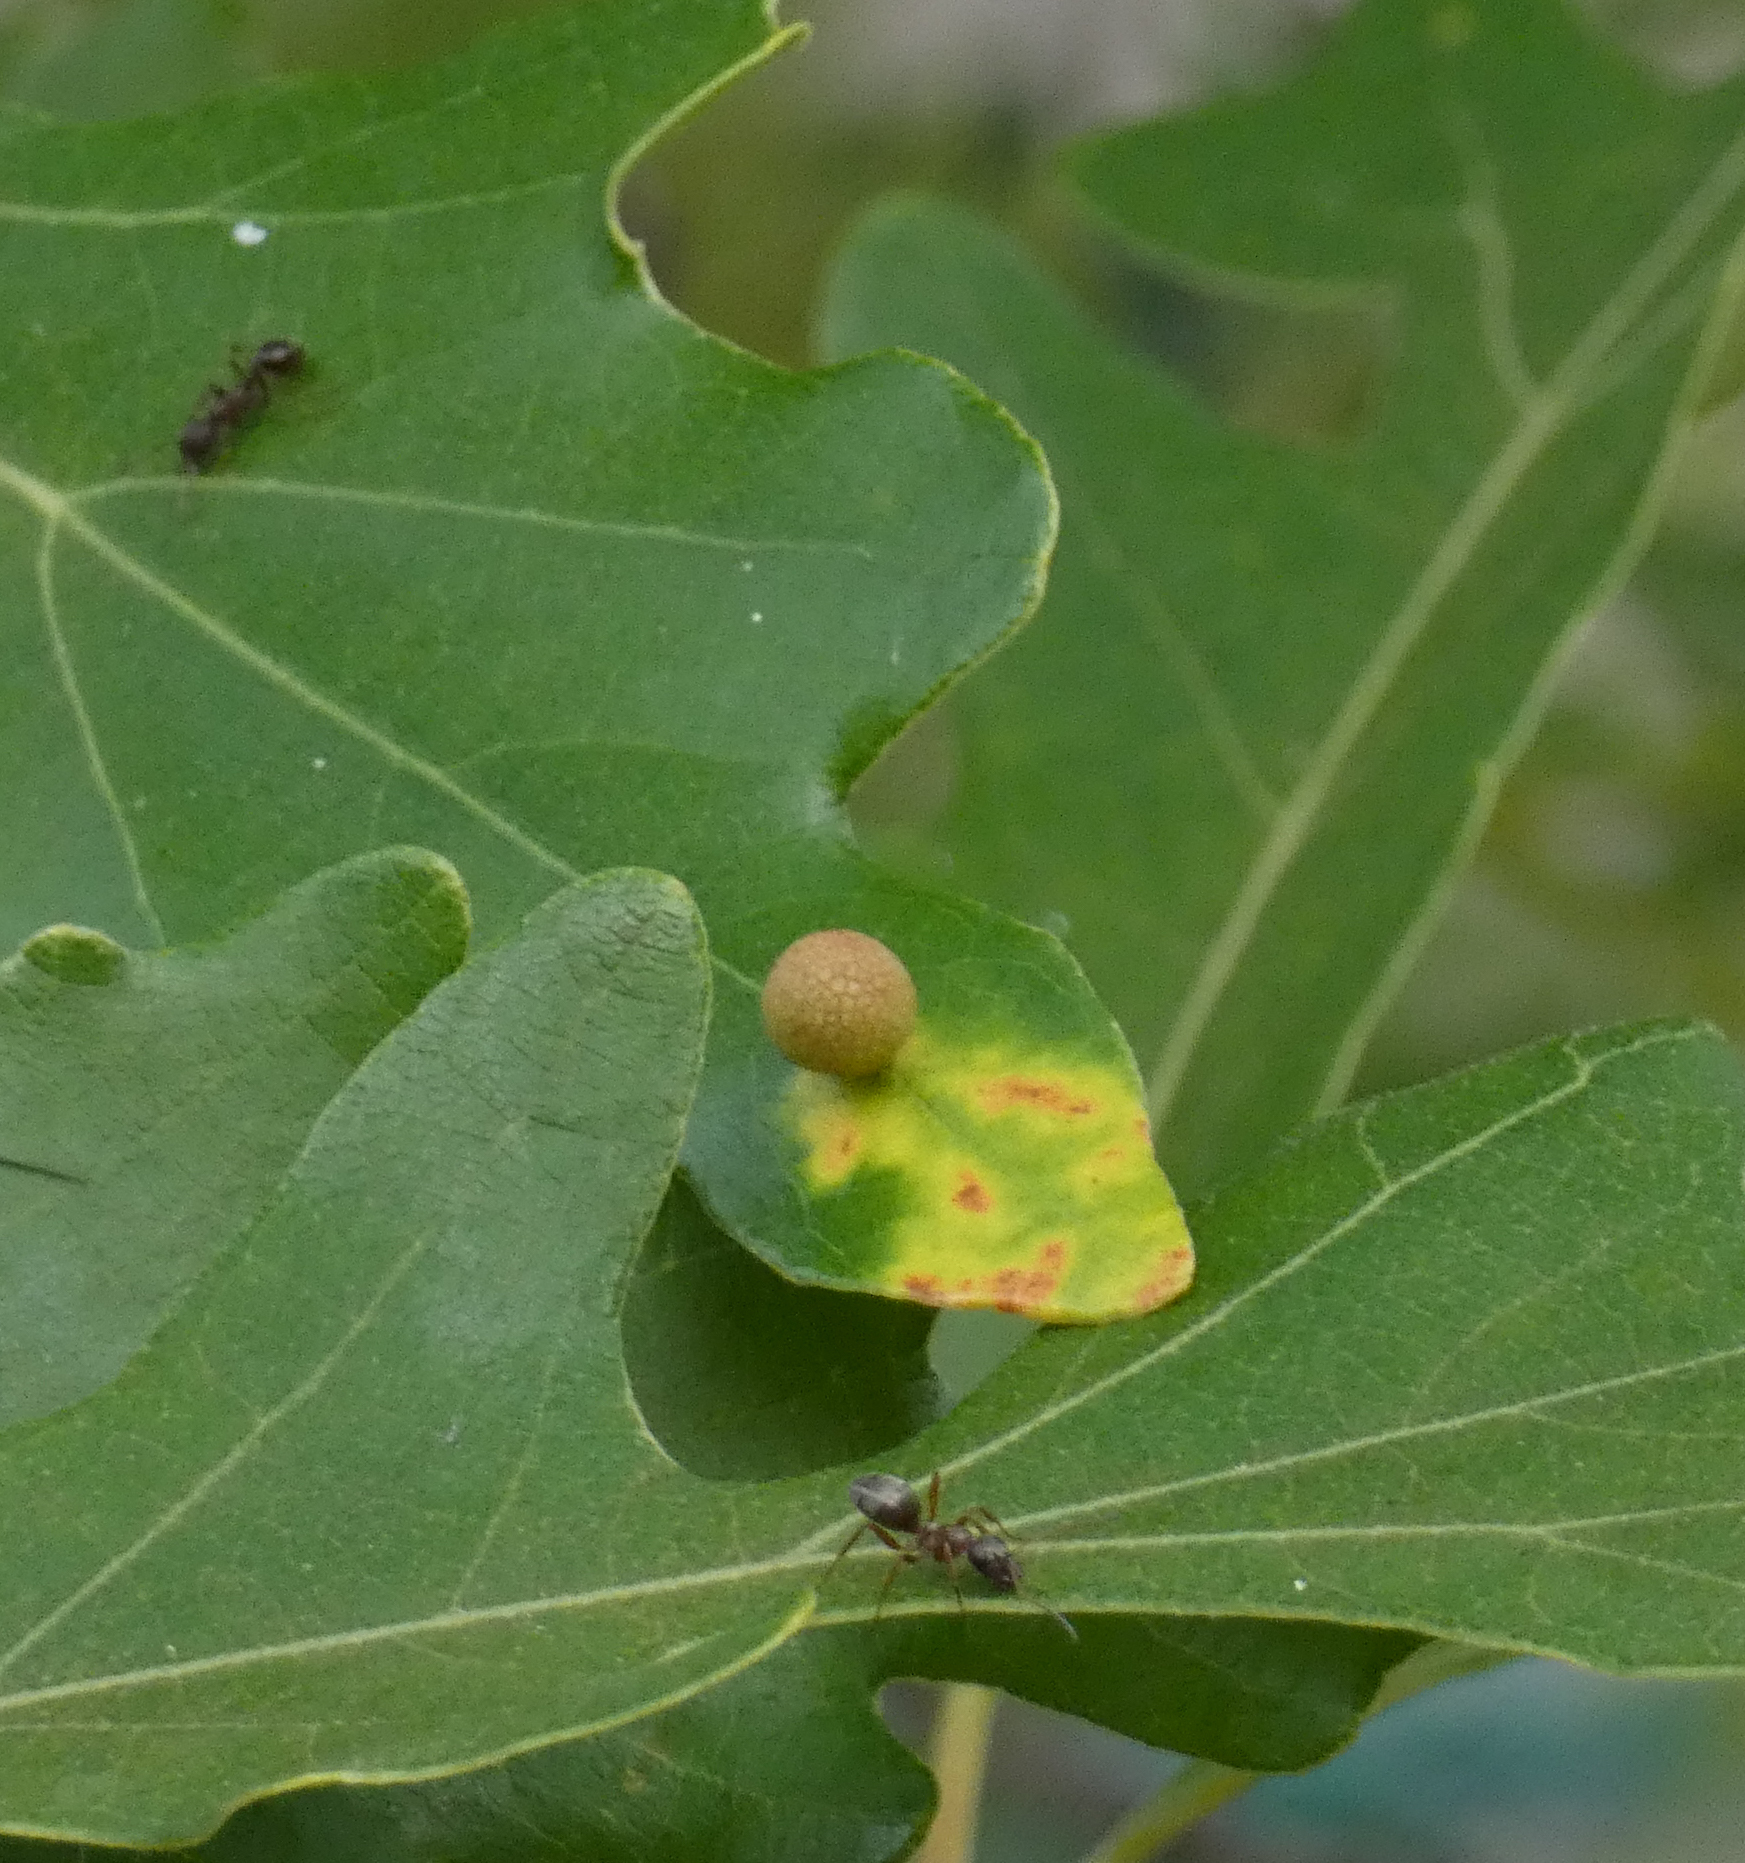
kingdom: Animalia
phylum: Arthropoda
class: Insecta
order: Hymenoptera
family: Cynipidae
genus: Acraspis
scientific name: Acraspis quercushirta
